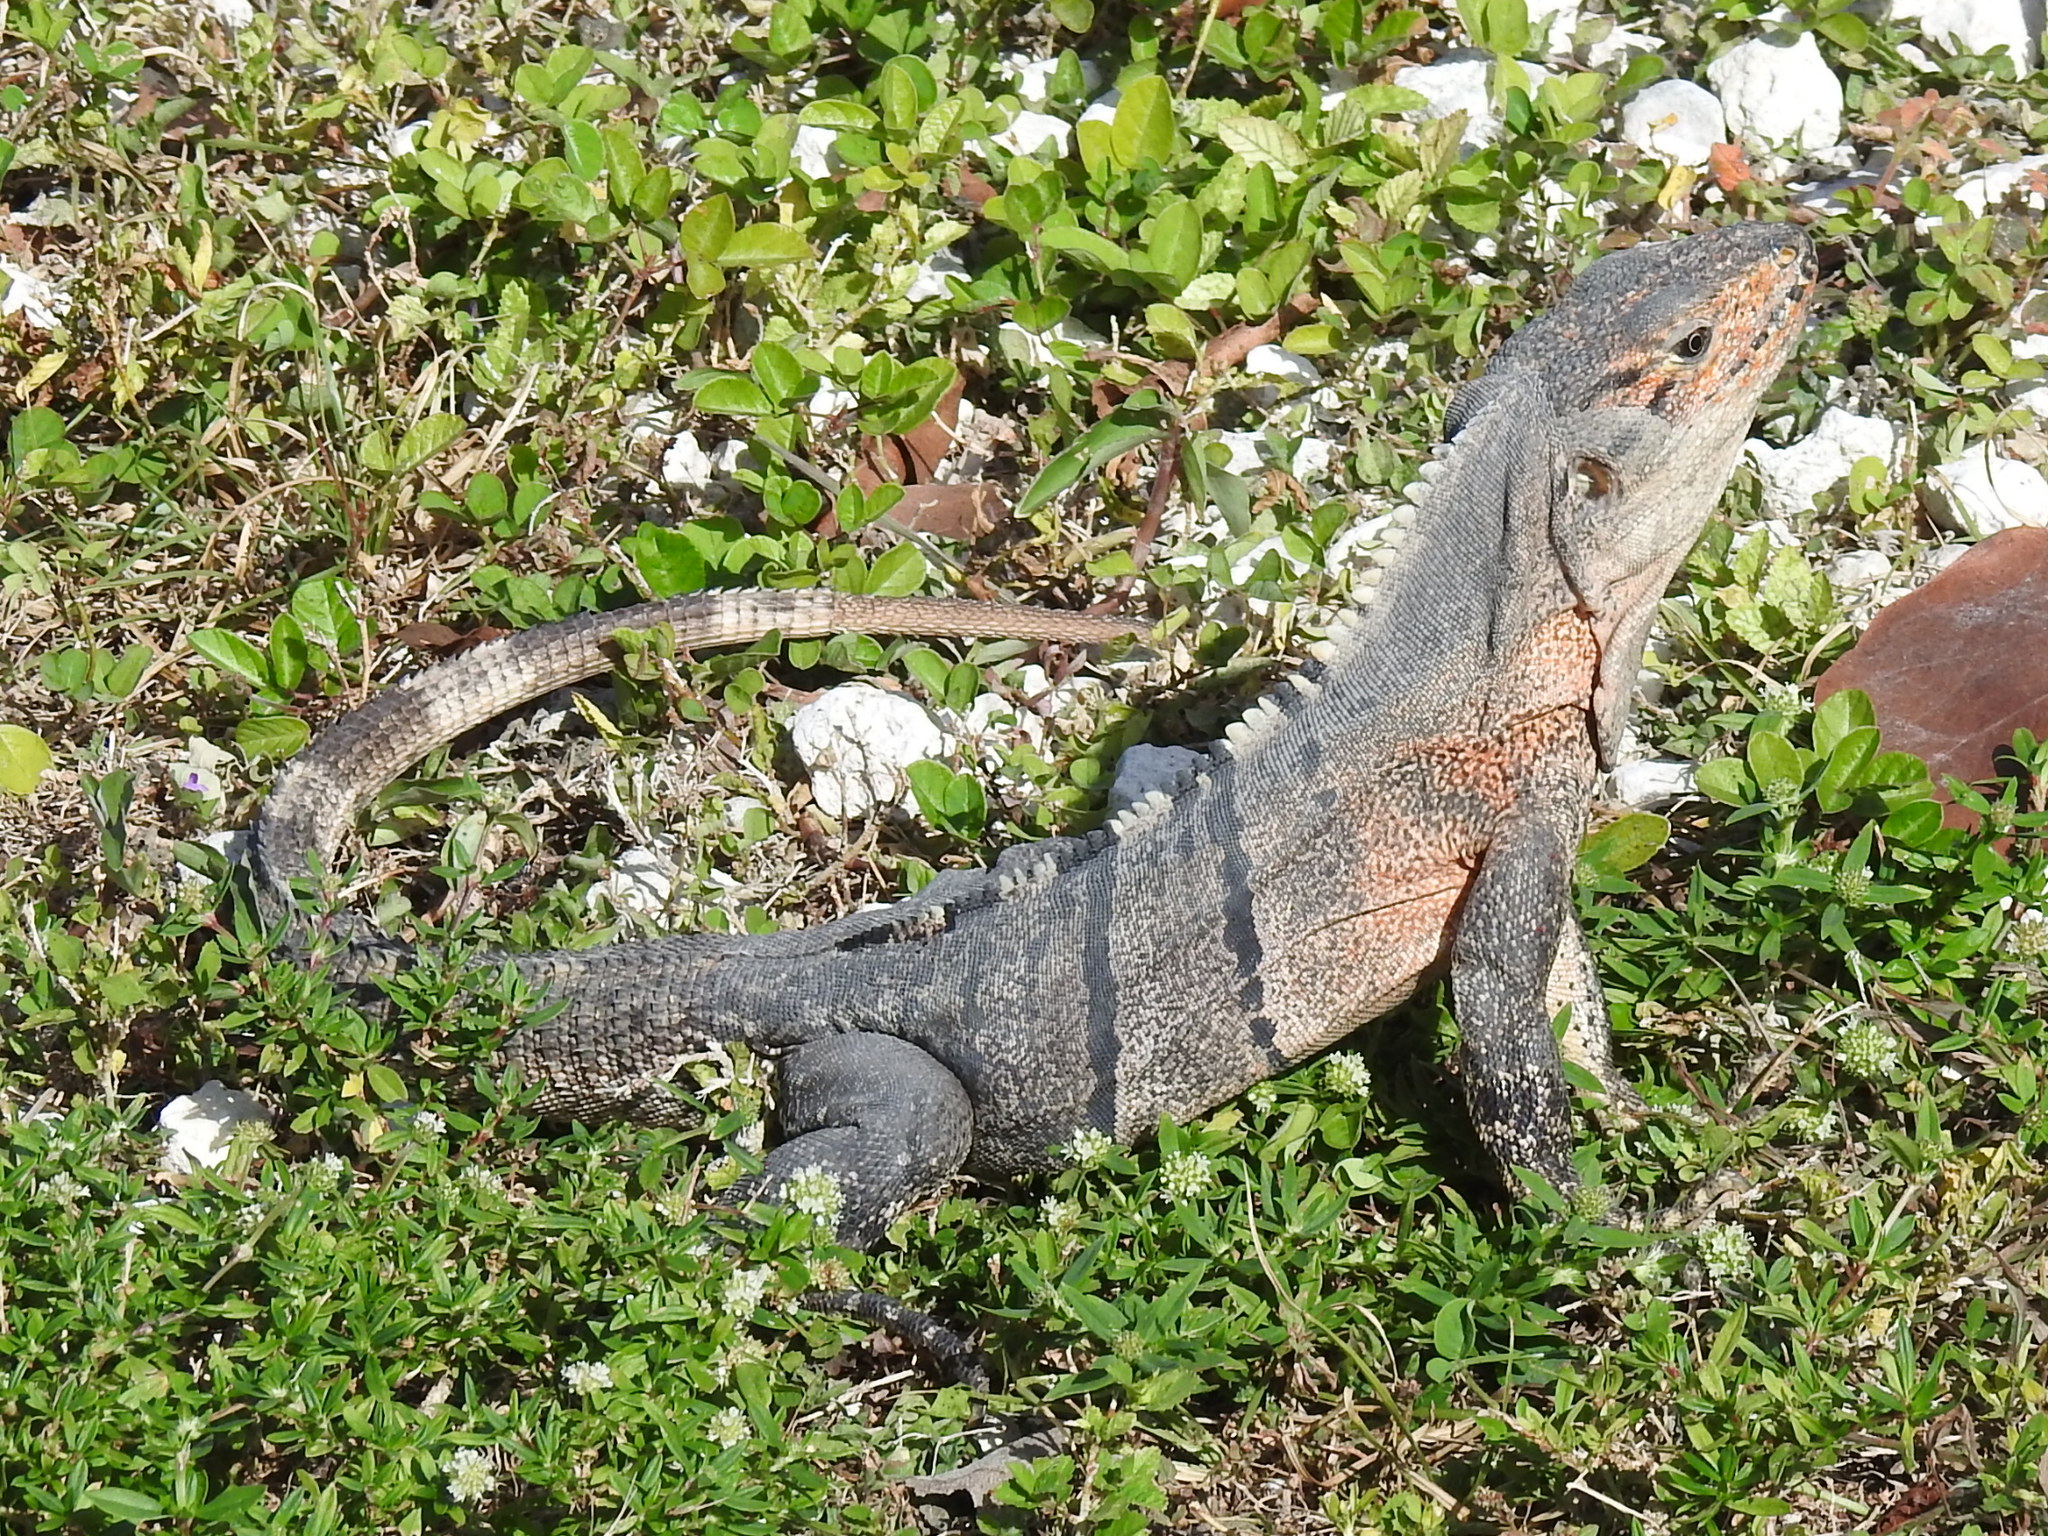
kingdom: Animalia
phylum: Chordata
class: Squamata
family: Iguanidae
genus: Ctenosaura
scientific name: Ctenosaura similis
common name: Black spiny-tailed iguana
